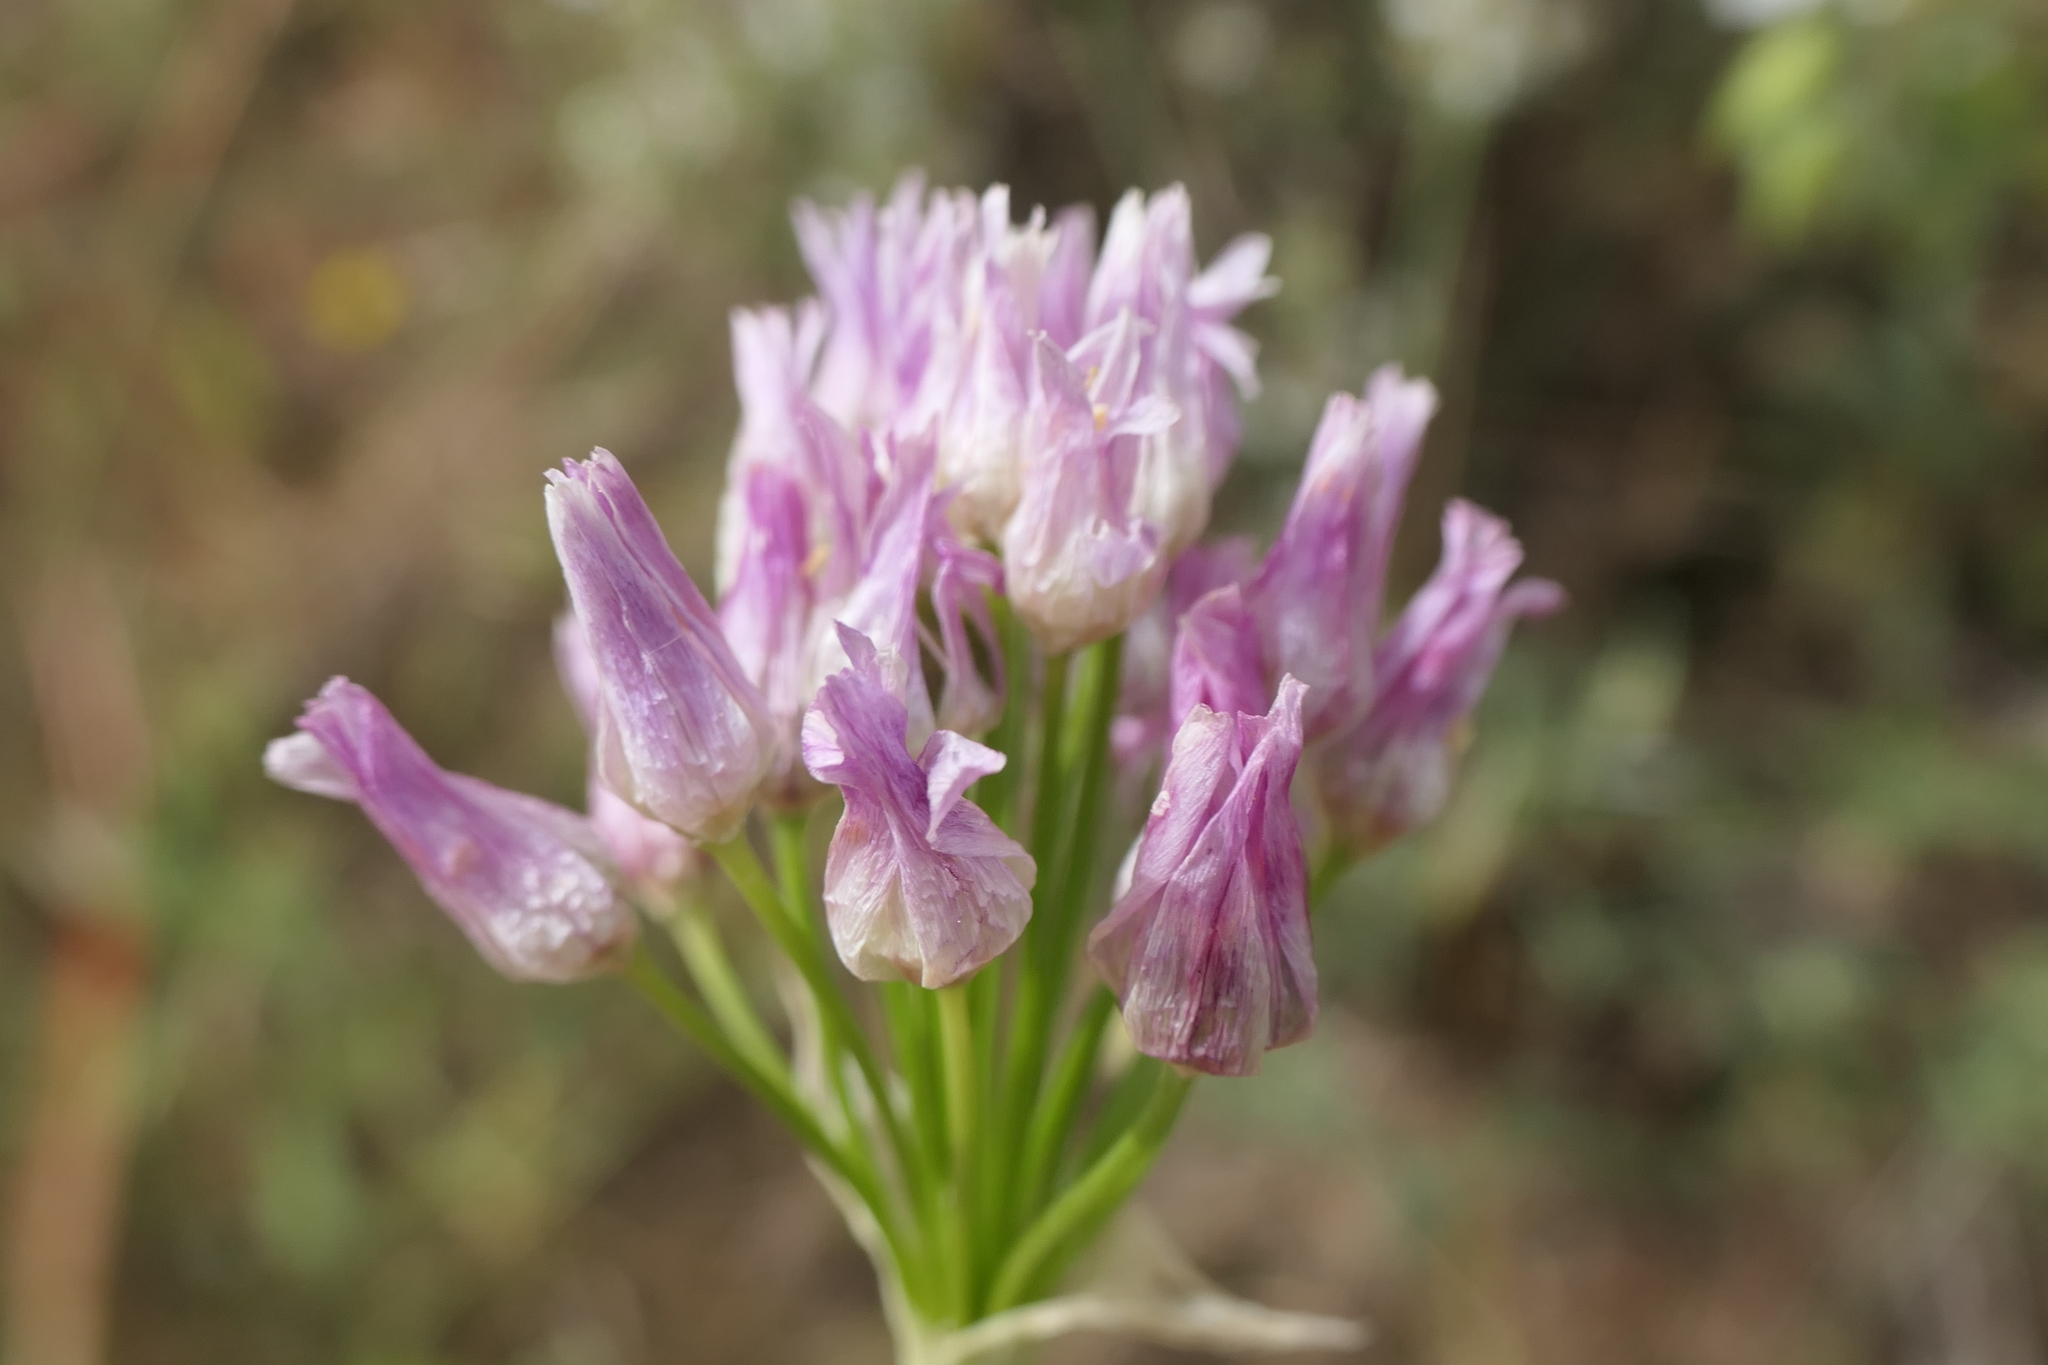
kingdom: Plantae
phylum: Tracheophyta
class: Liliopsida
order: Asparagales
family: Amaryllidaceae
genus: Allium
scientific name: Allium roseum
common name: Rosy garlic
